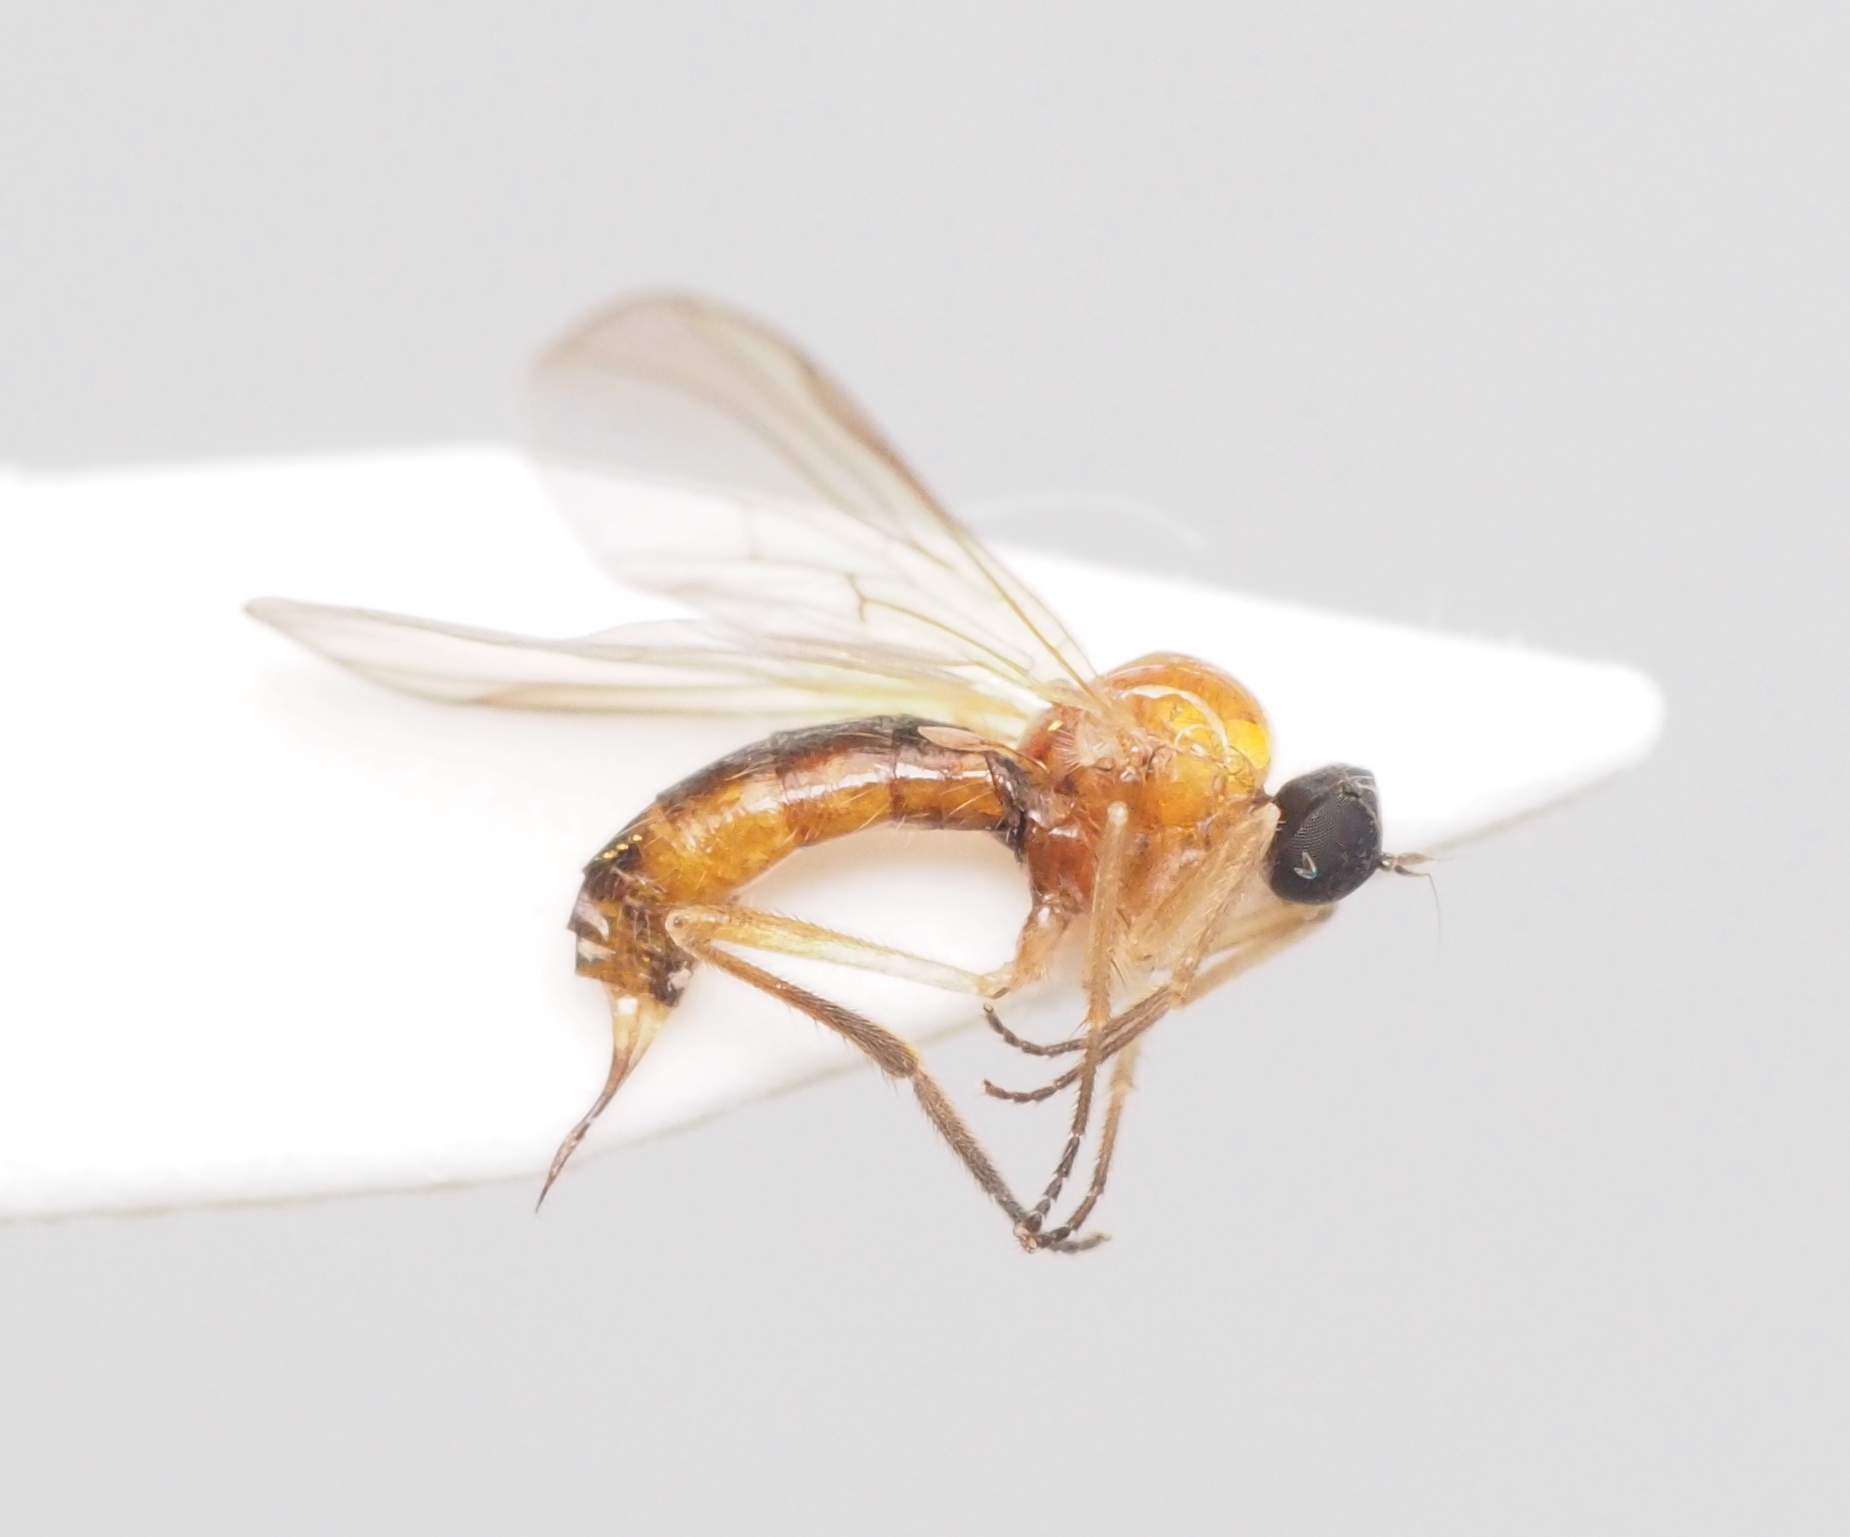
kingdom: Animalia
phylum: Arthropoda
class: Insecta
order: Diptera
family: Hybotidae
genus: Leptopeza
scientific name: Leptopeza flavipes
